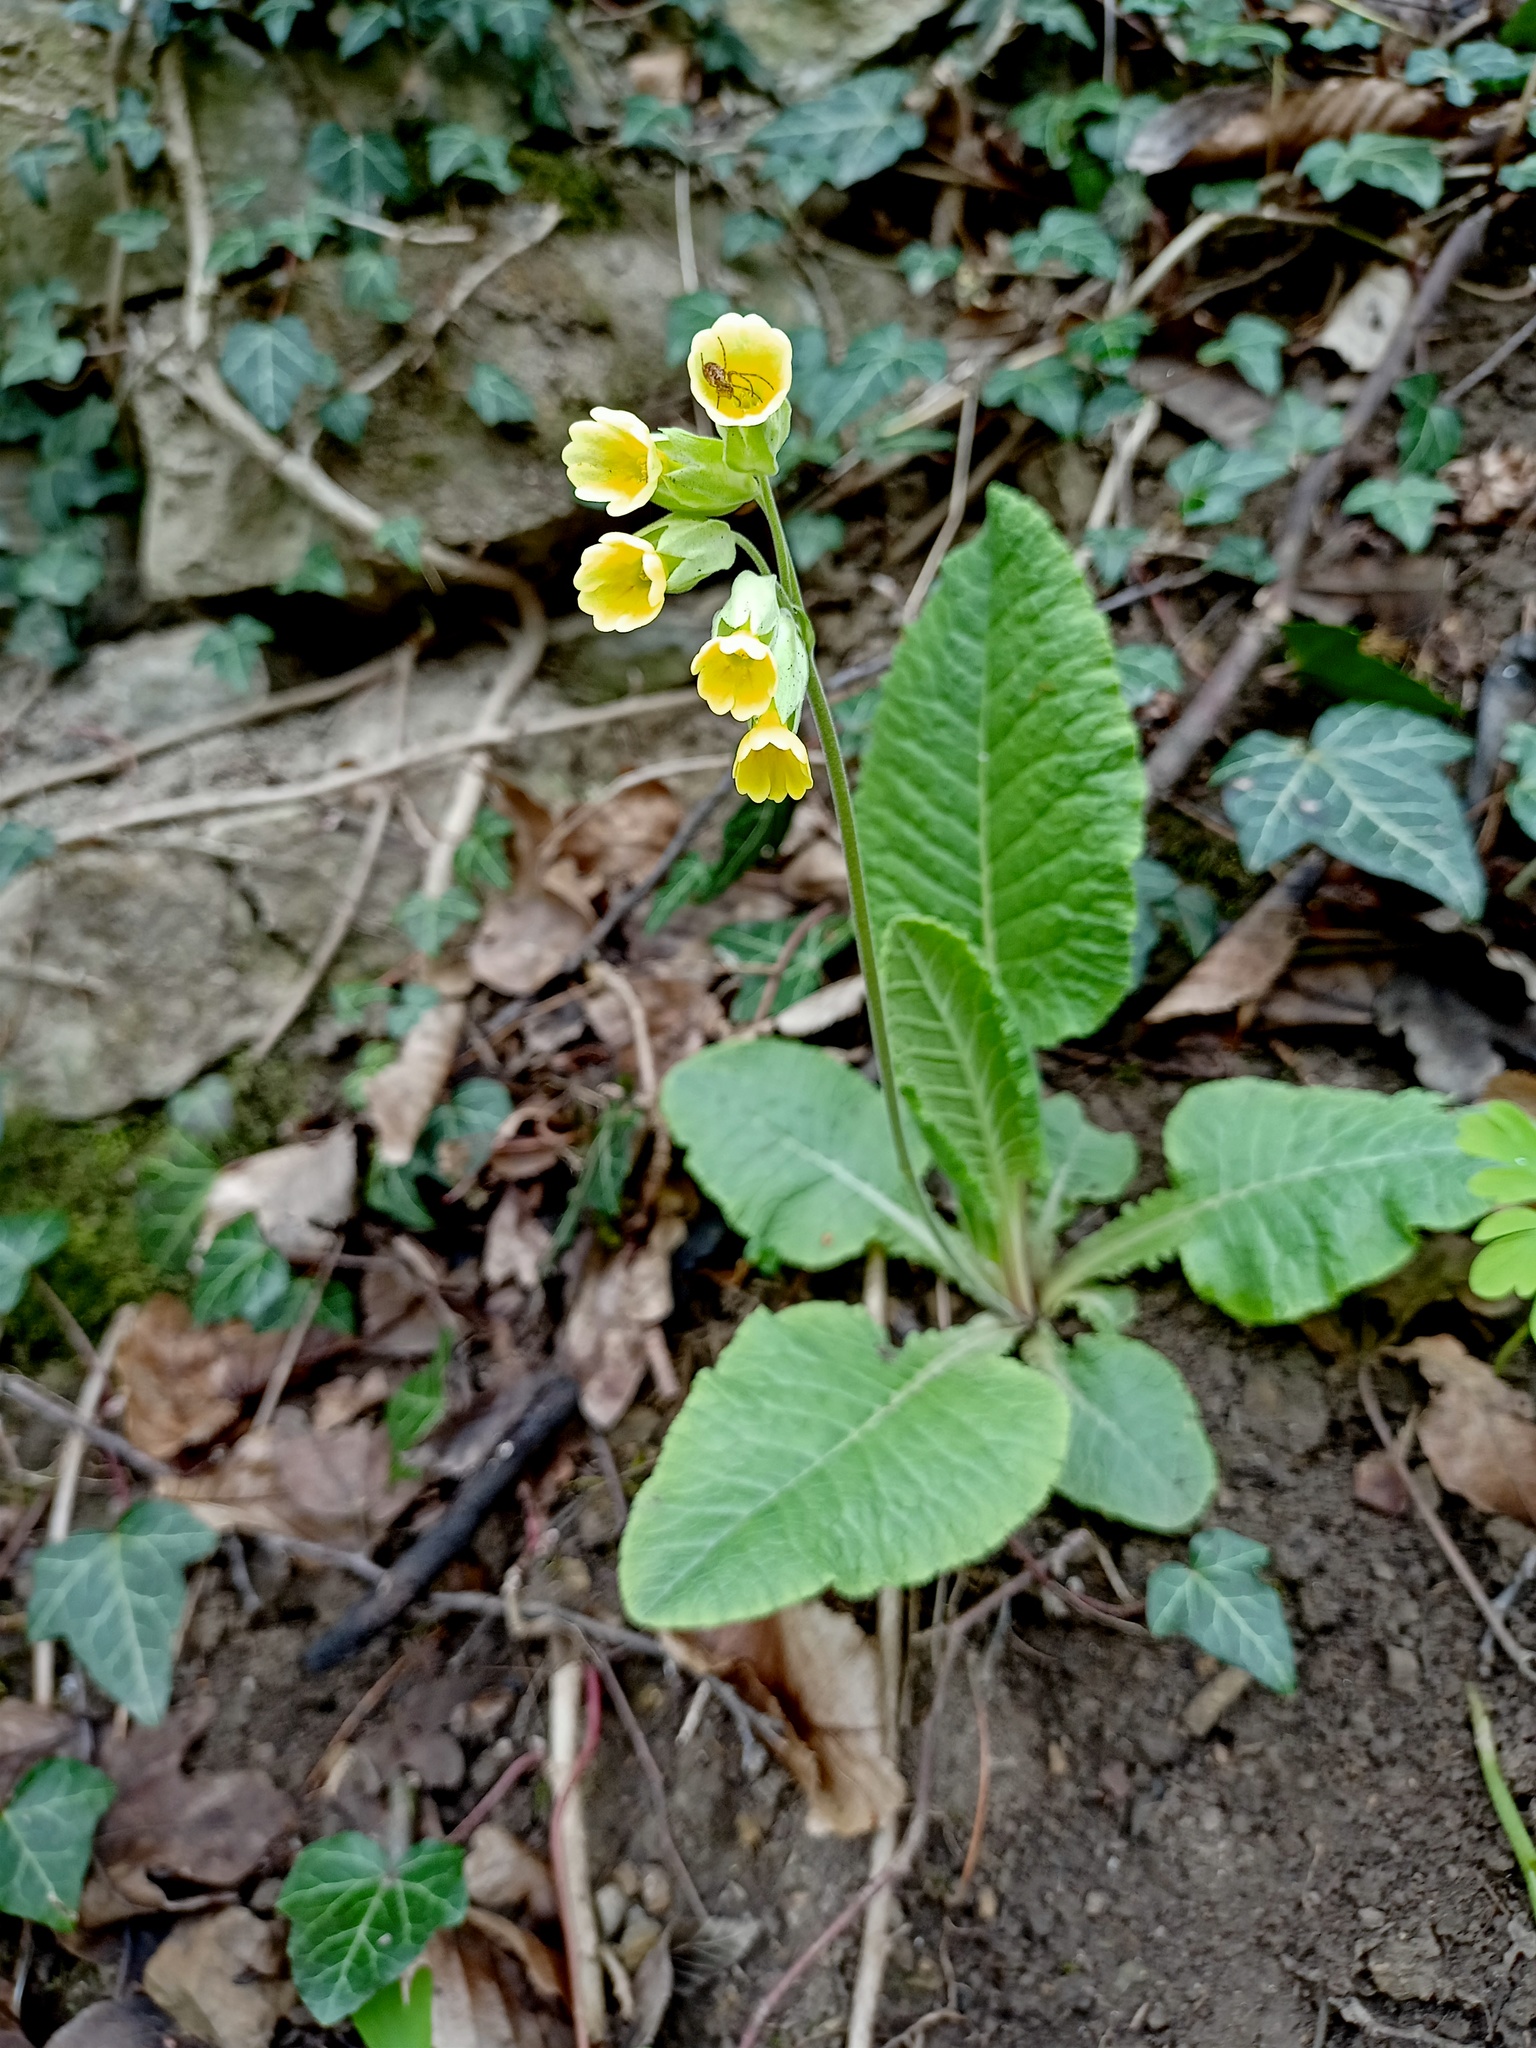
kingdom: Plantae
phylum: Tracheophyta
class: Magnoliopsida
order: Ericales
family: Primulaceae
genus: Primula
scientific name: Primula veris
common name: Cowslip
